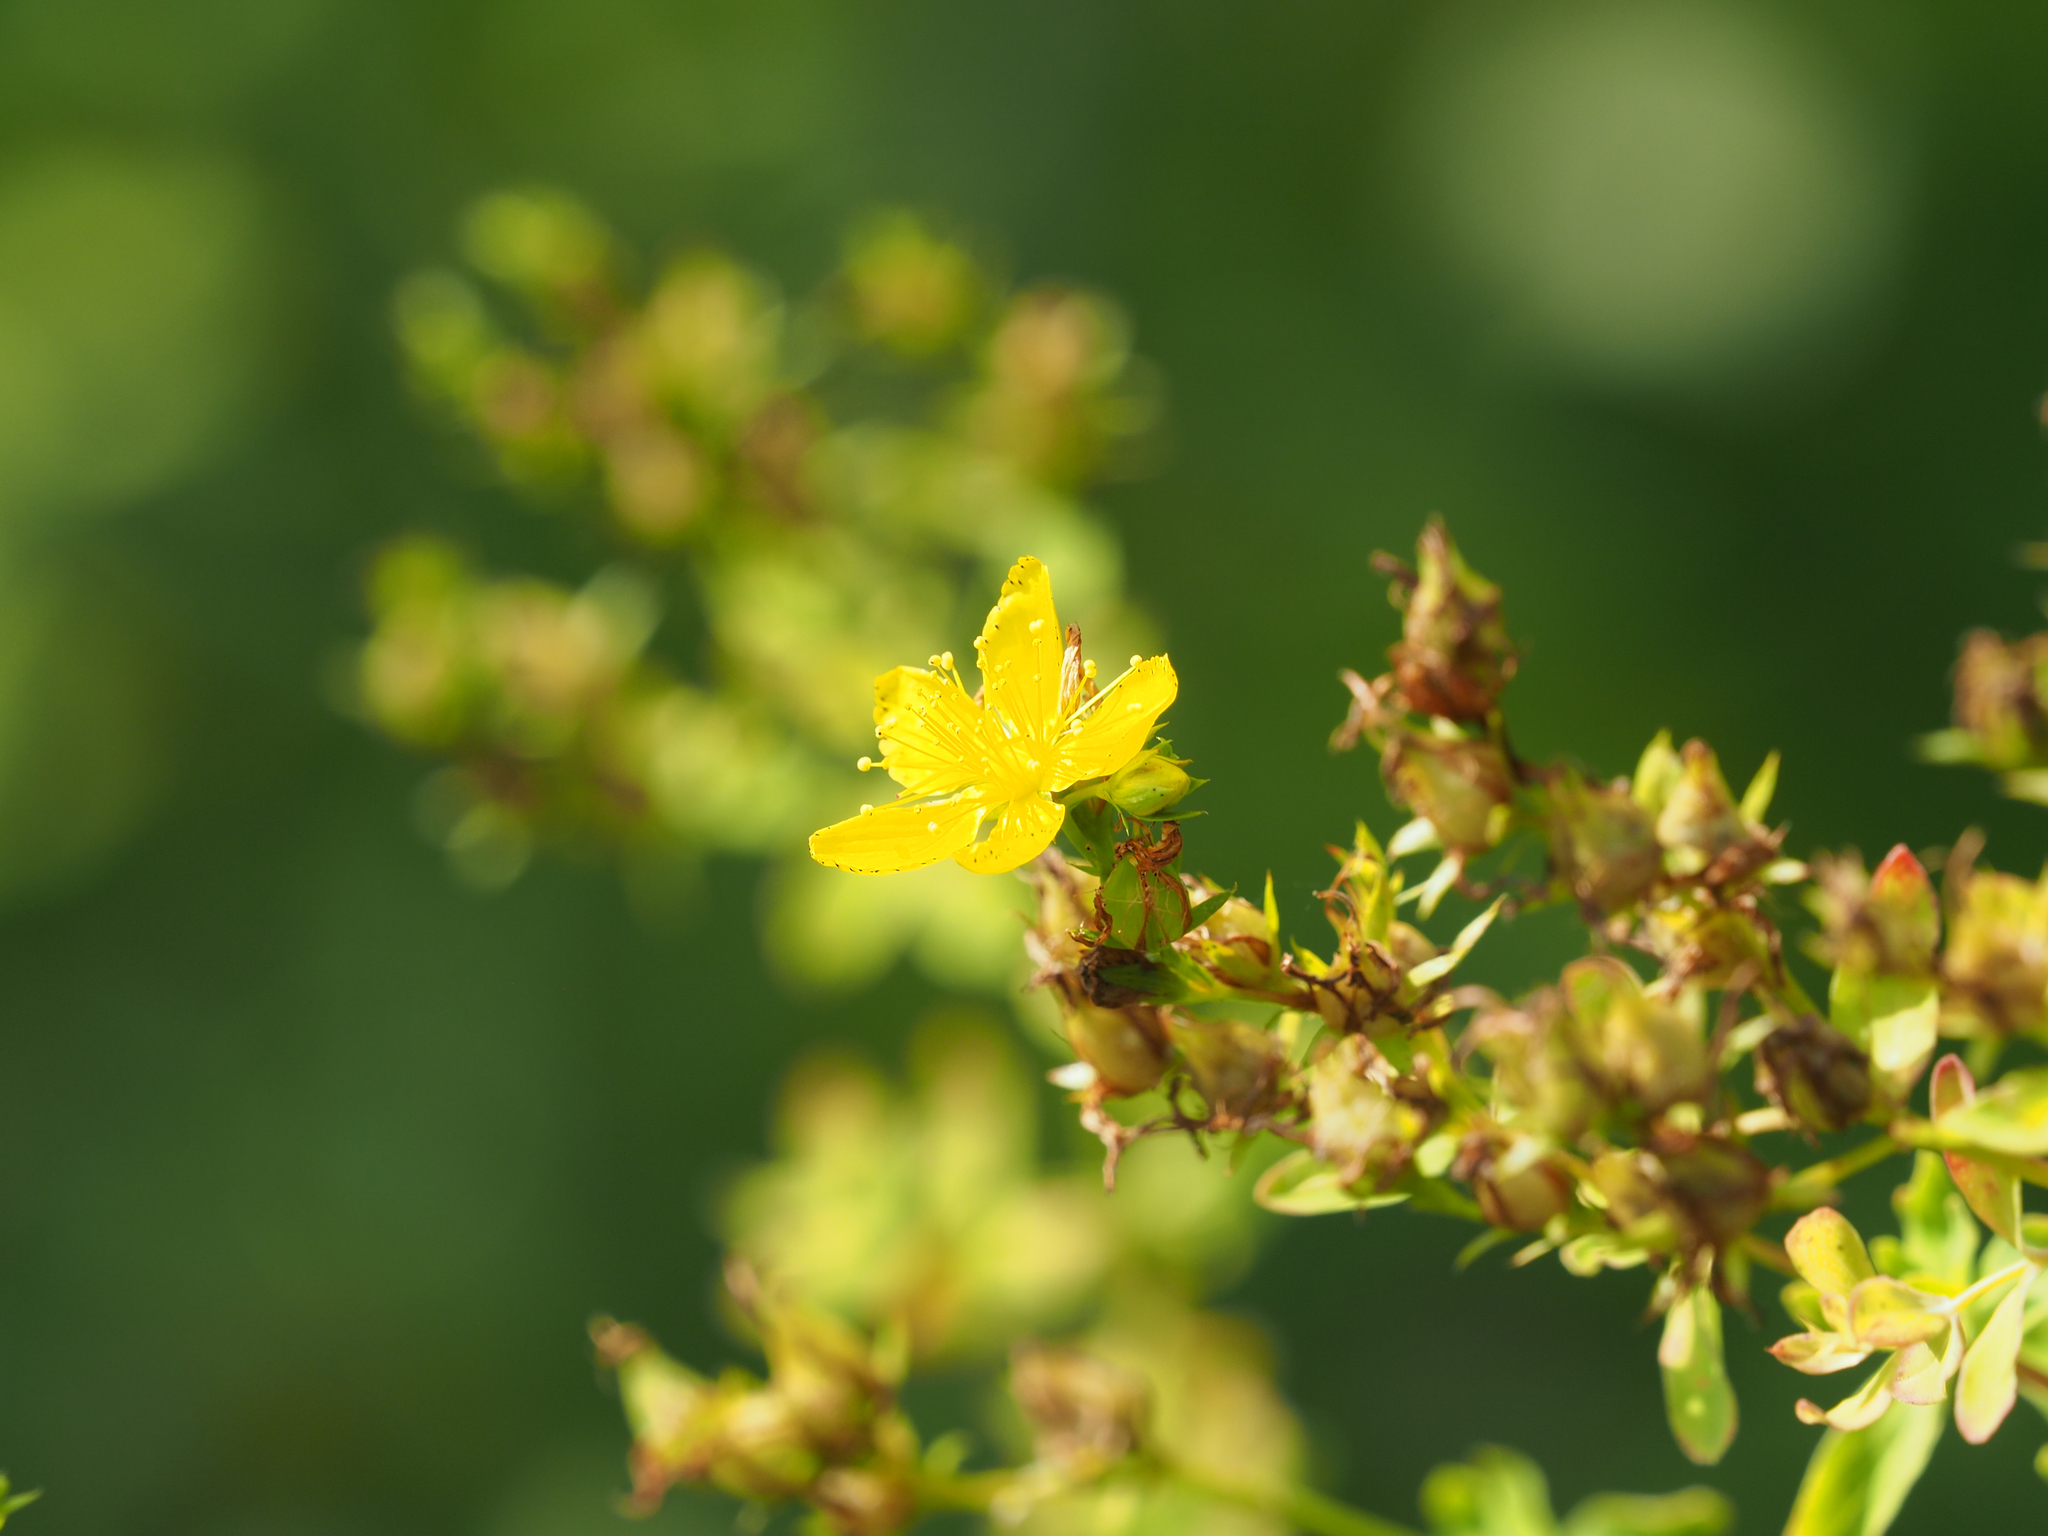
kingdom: Plantae
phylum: Tracheophyta
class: Magnoliopsida
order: Malpighiales
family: Hypericaceae
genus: Hypericum
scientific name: Hypericum perforatum
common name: Common st. johnswort
